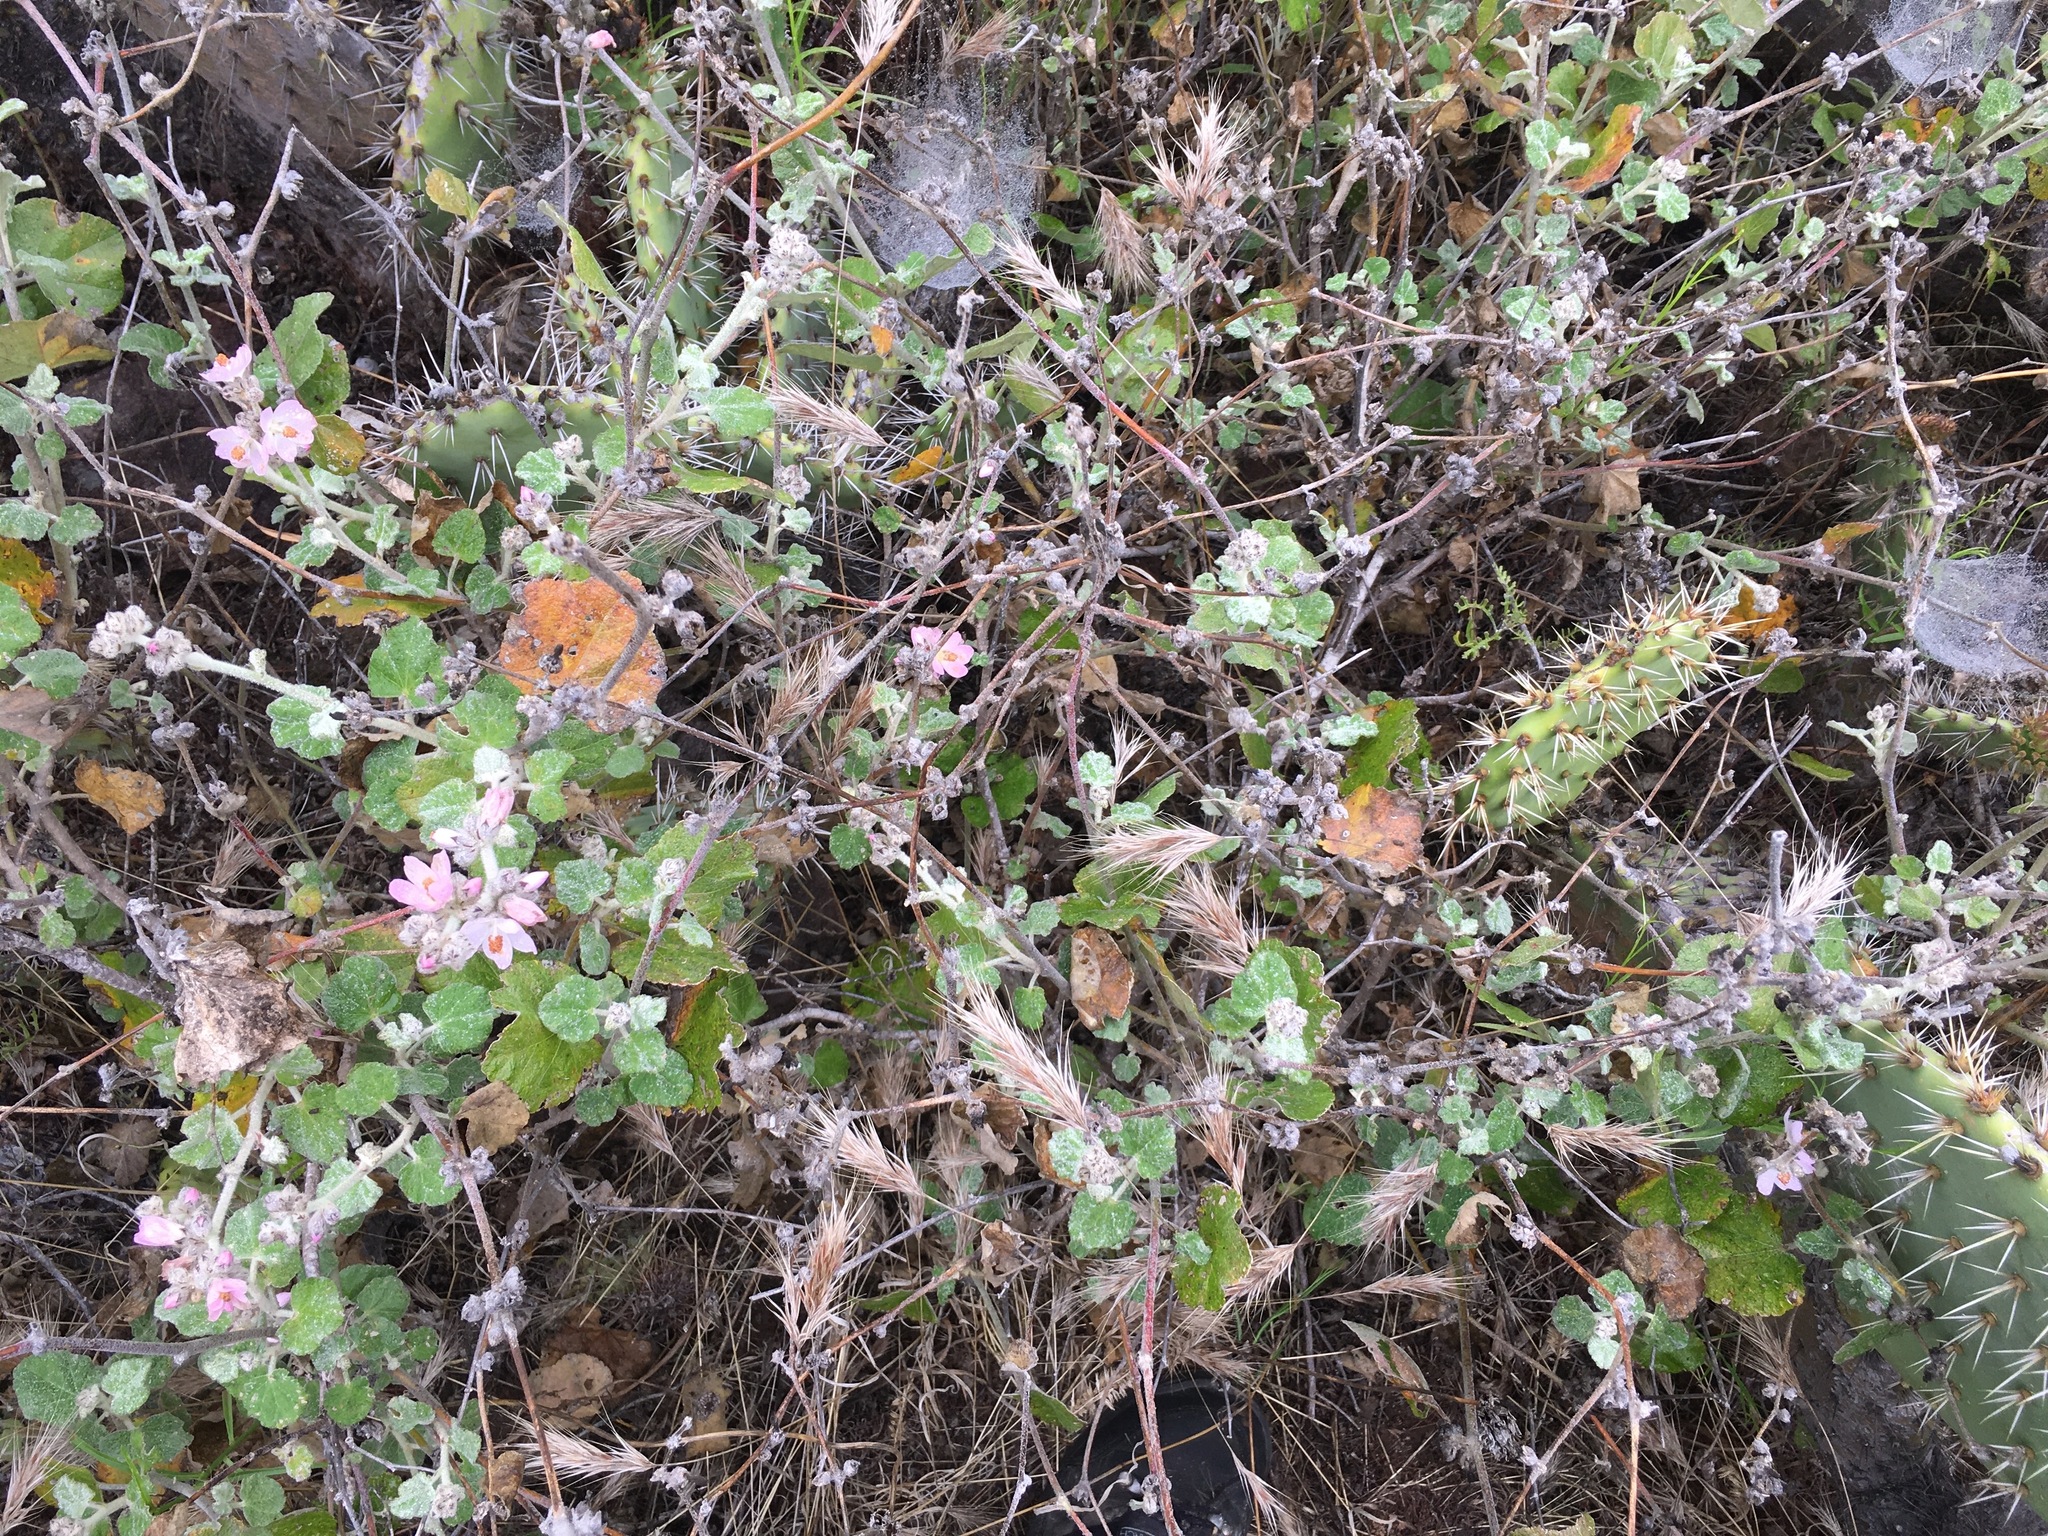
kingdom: Plantae
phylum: Tracheophyta
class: Magnoliopsida
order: Malvales
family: Malvaceae
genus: Malacothamnus
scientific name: Malacothamnus clementinus
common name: San clemente island bush-mallow
